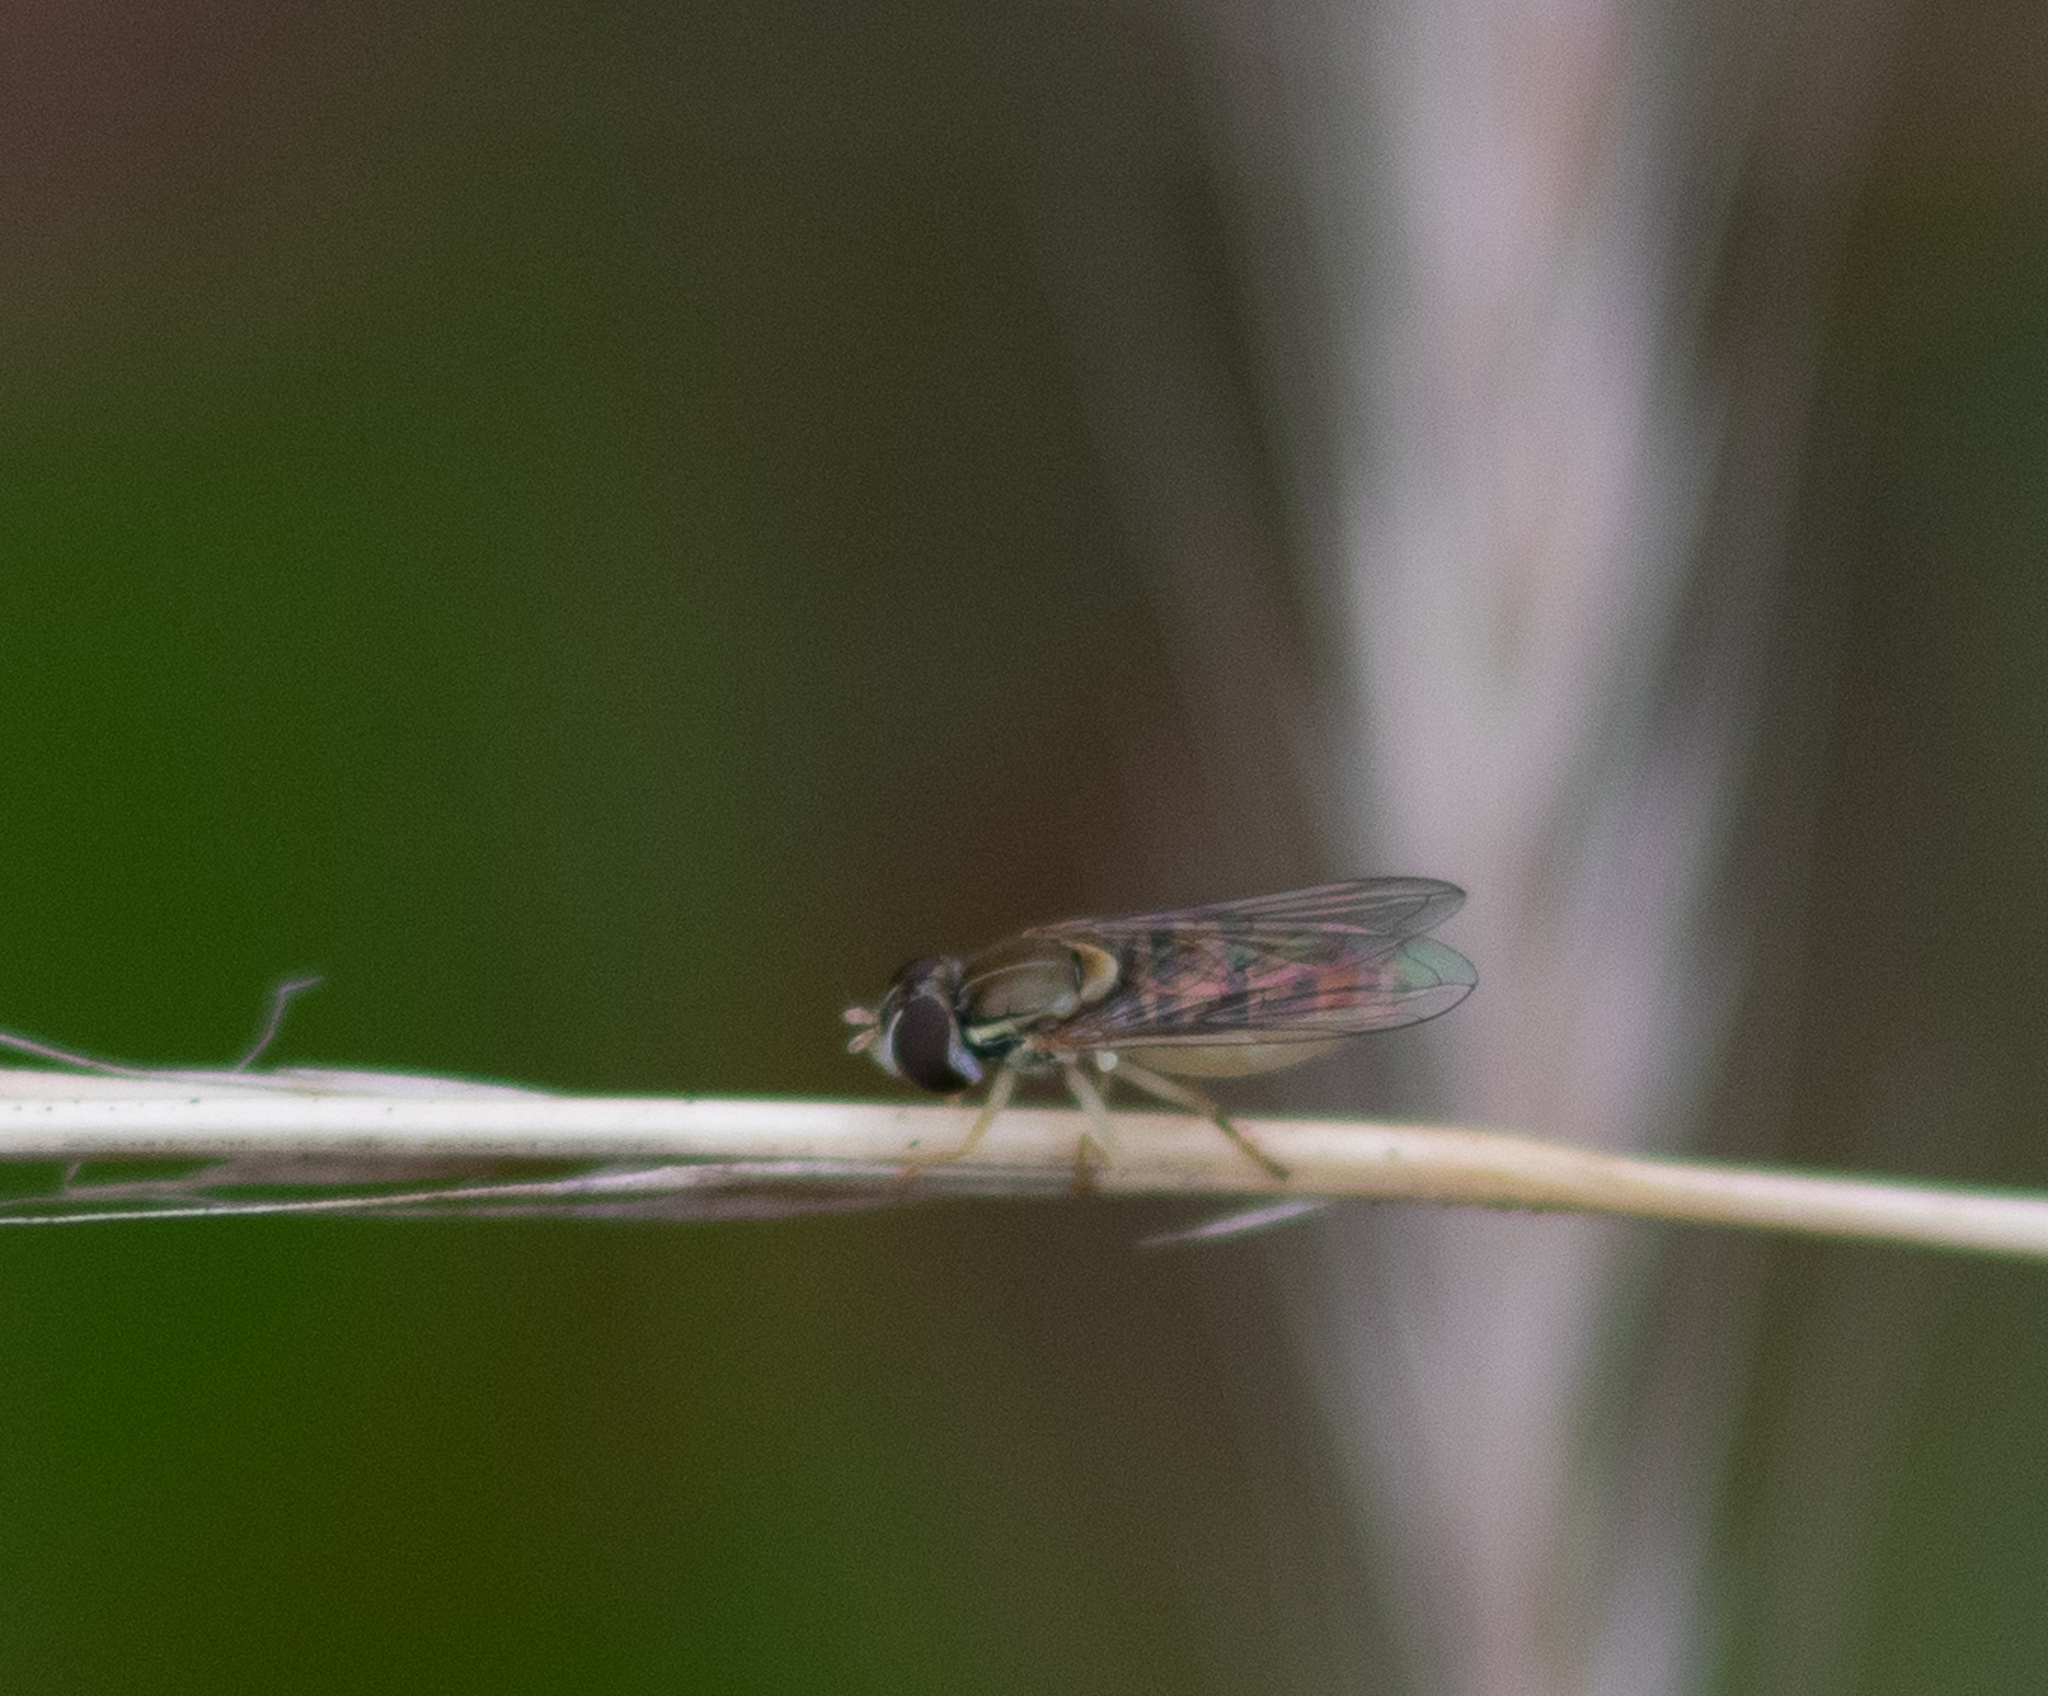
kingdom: Animalia
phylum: Arthropoda
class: Insecta
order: Diptera
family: Syrphidae
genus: Toxomerus
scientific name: Toxomerus marginatus
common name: Syrphid fly
